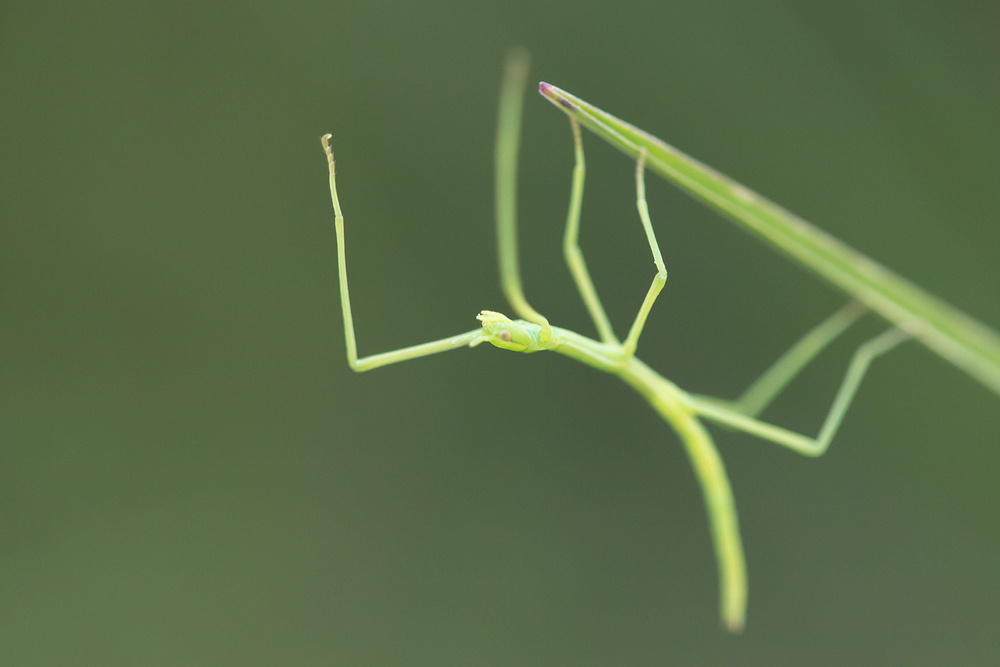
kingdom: Animalia
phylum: Arthropoda
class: Insecta
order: Phasmida
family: Bacillidae
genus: Clonopsis
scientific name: Clonopsis gallica
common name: French stick insect
